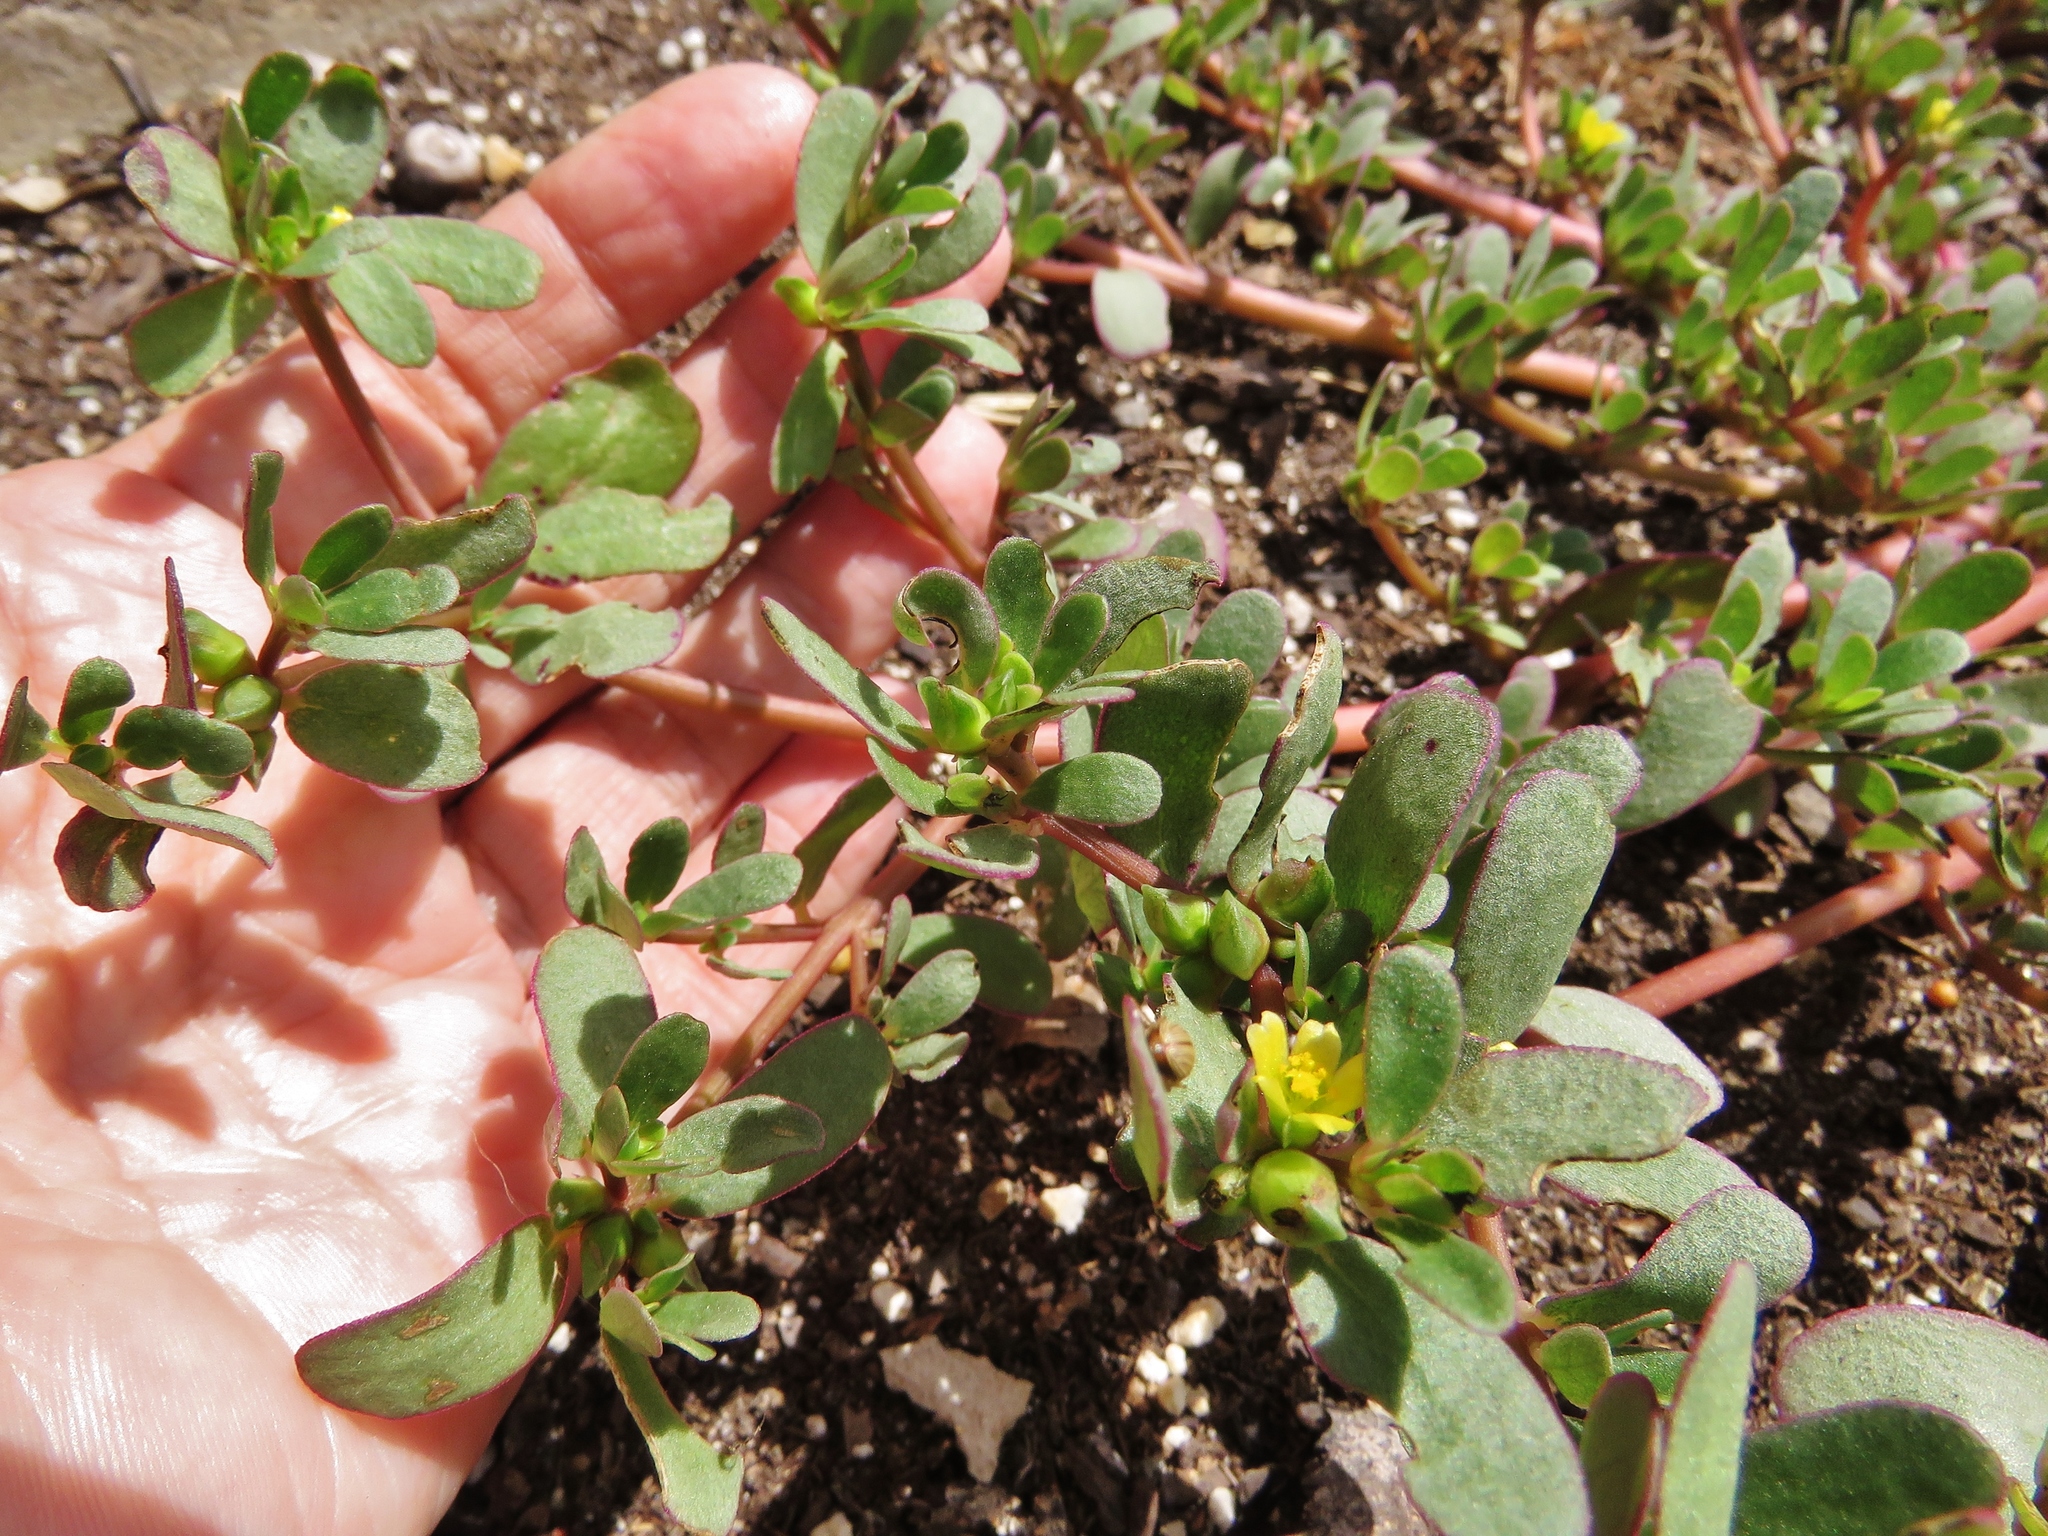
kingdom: Plantae
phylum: Tracheophyta
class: Magnoliopsida
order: Caryophyllales
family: Portulacaceae
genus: Portulaca
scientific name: Portulaca oleracea
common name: Common purslane
